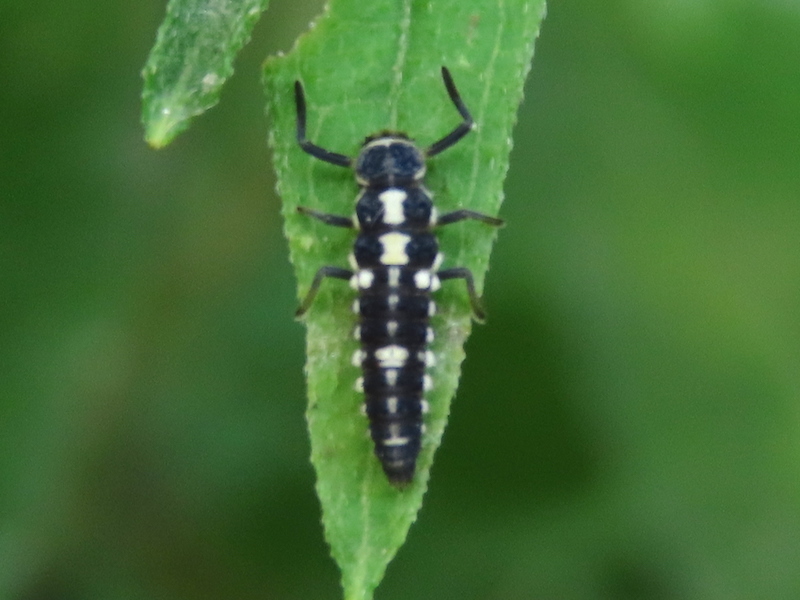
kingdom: Animalia
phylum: Arthropoda
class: Insecta
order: Coleoptera
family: Coccinellidae
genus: Propylaea
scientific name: Propylaea quatuordecimpunctata
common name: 14-spotted ladybird beetle
